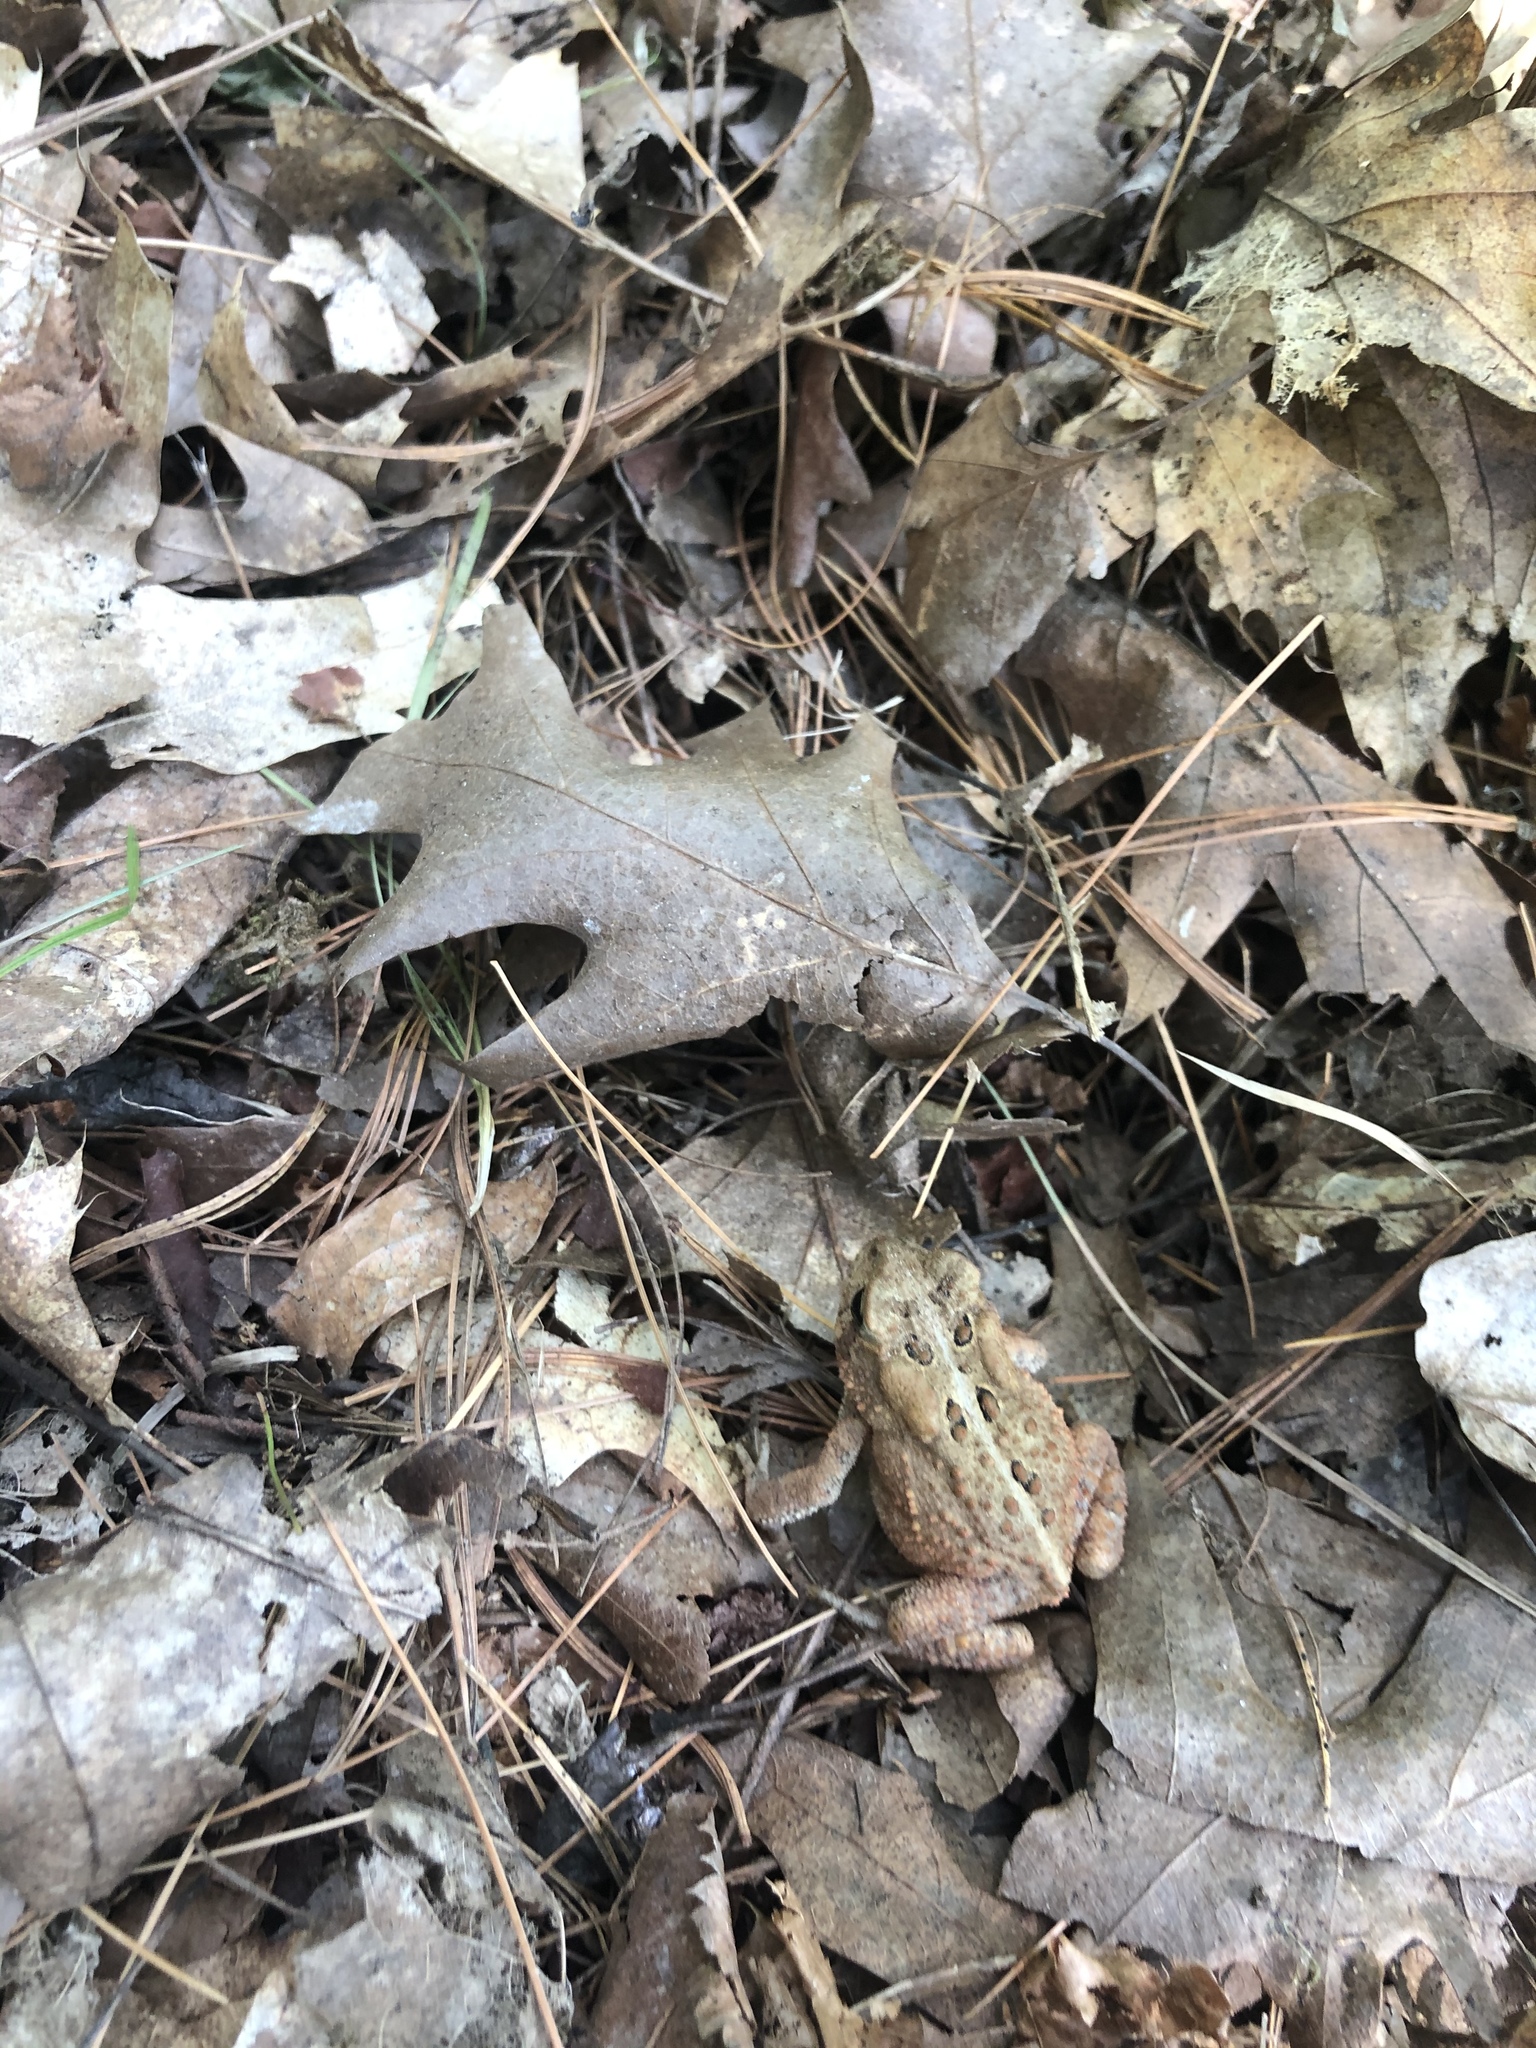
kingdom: Animalia
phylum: Chordata
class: Amphibia
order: Anura
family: Bufonidae
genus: Anaxyrus
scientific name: Anaxyrus americanus
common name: American toad
